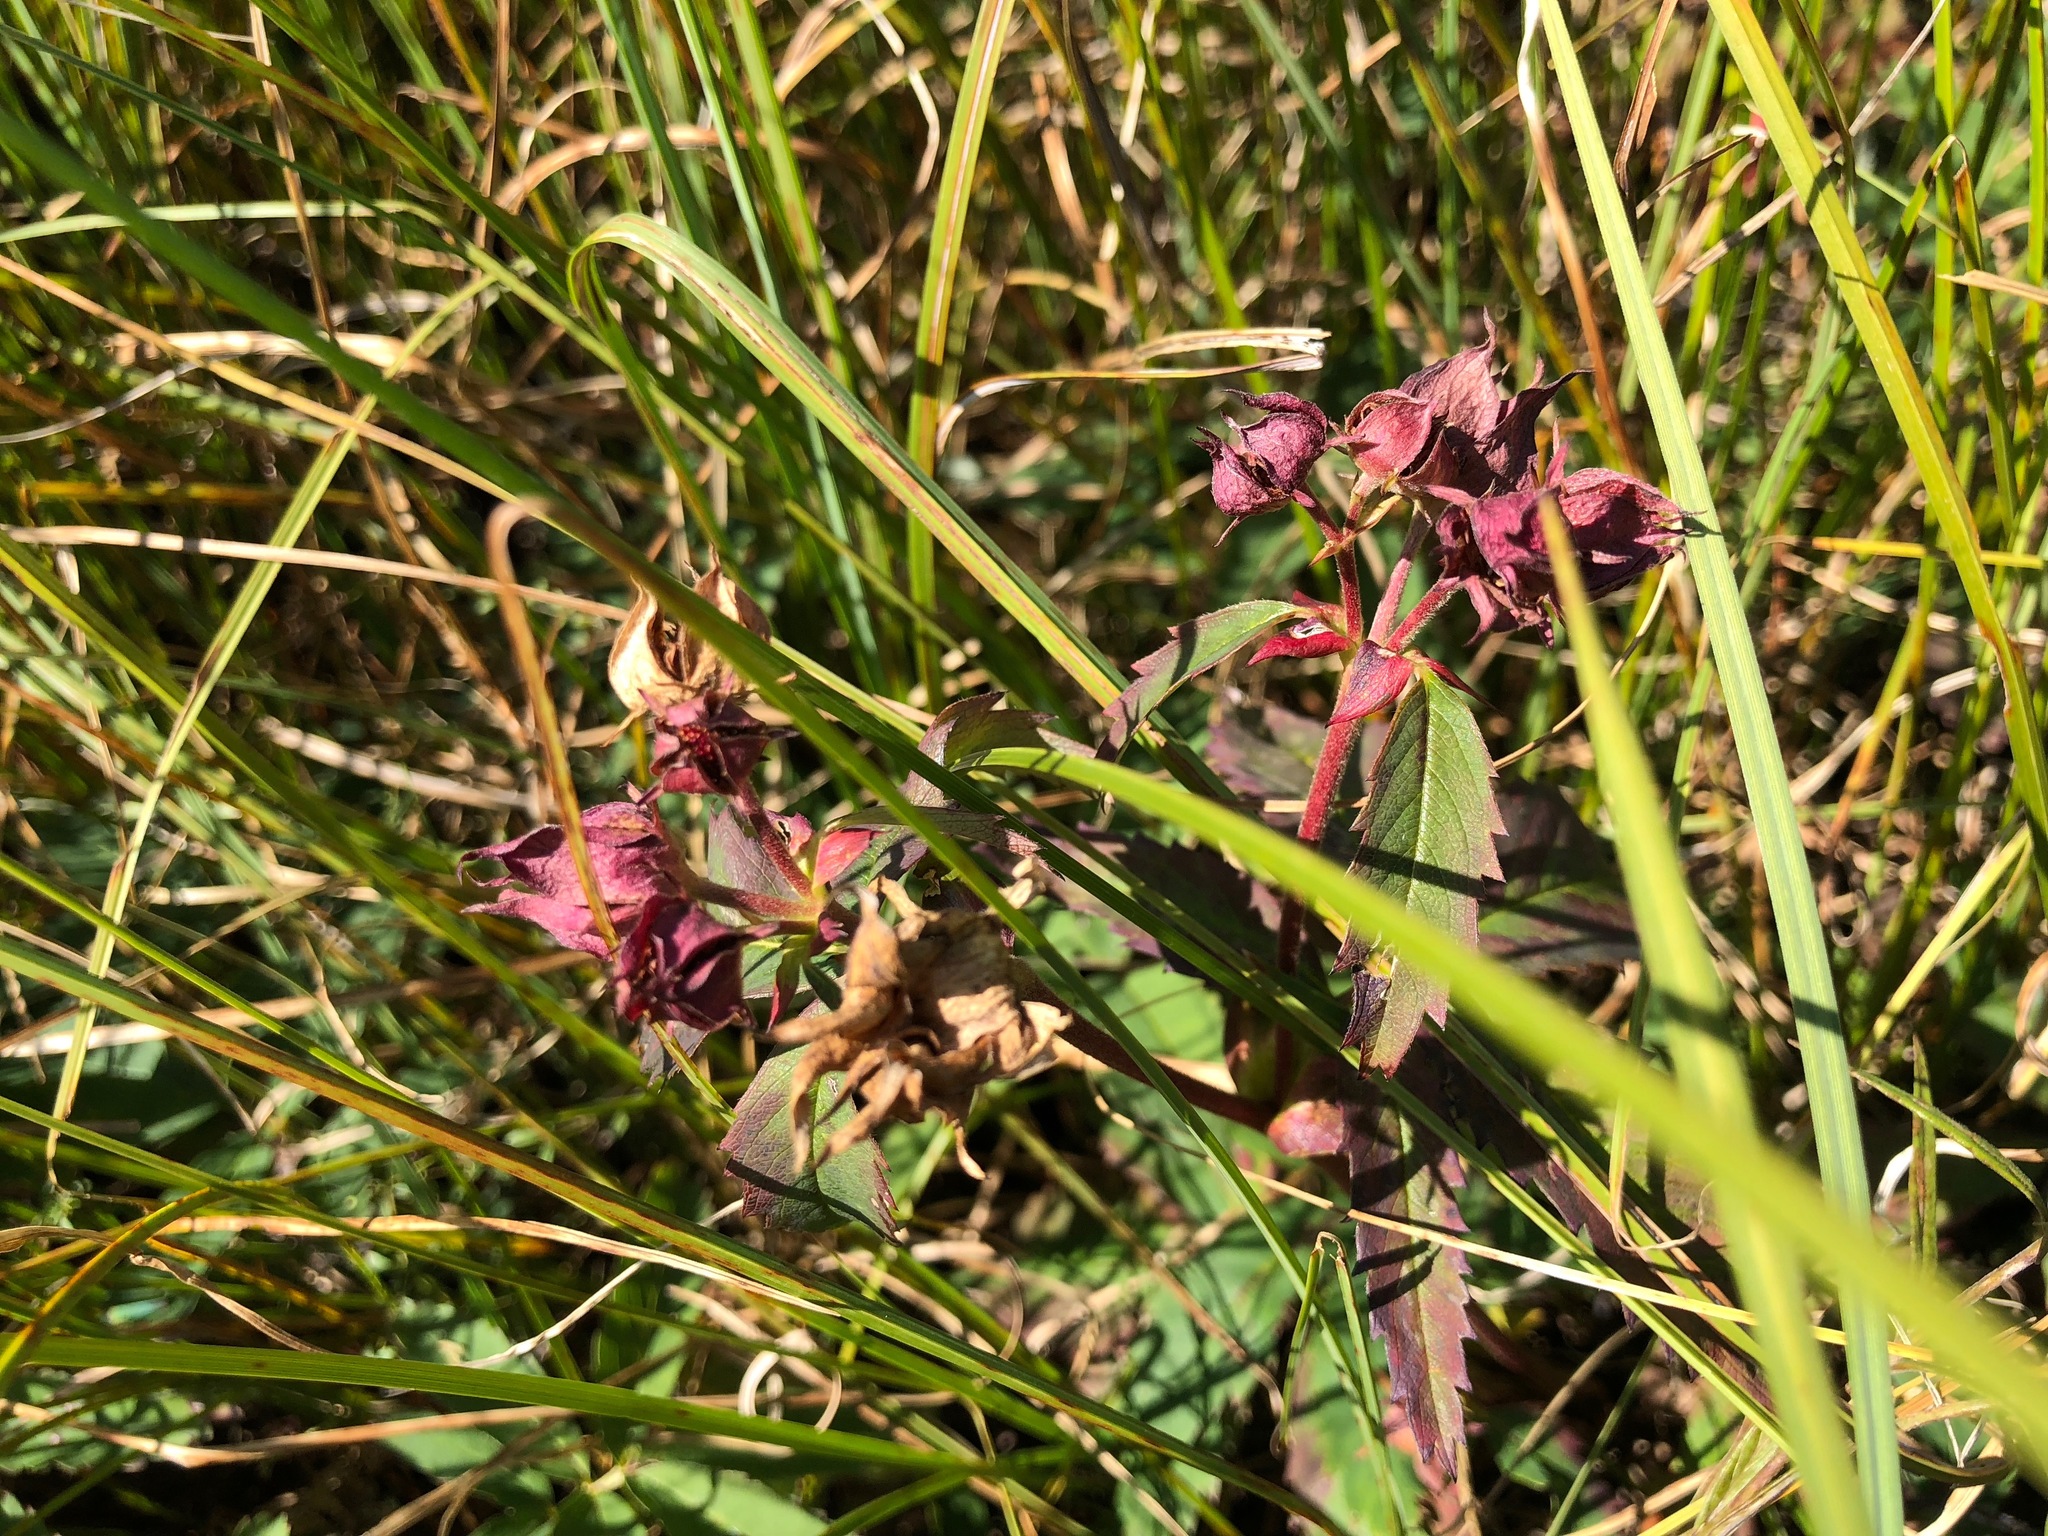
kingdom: Plantae
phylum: Tracheophyta
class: Magnoliopsida
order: Rosales
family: Rosaceae
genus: Comarum
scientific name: Comarum palustre
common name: Marsh cinquefoil
